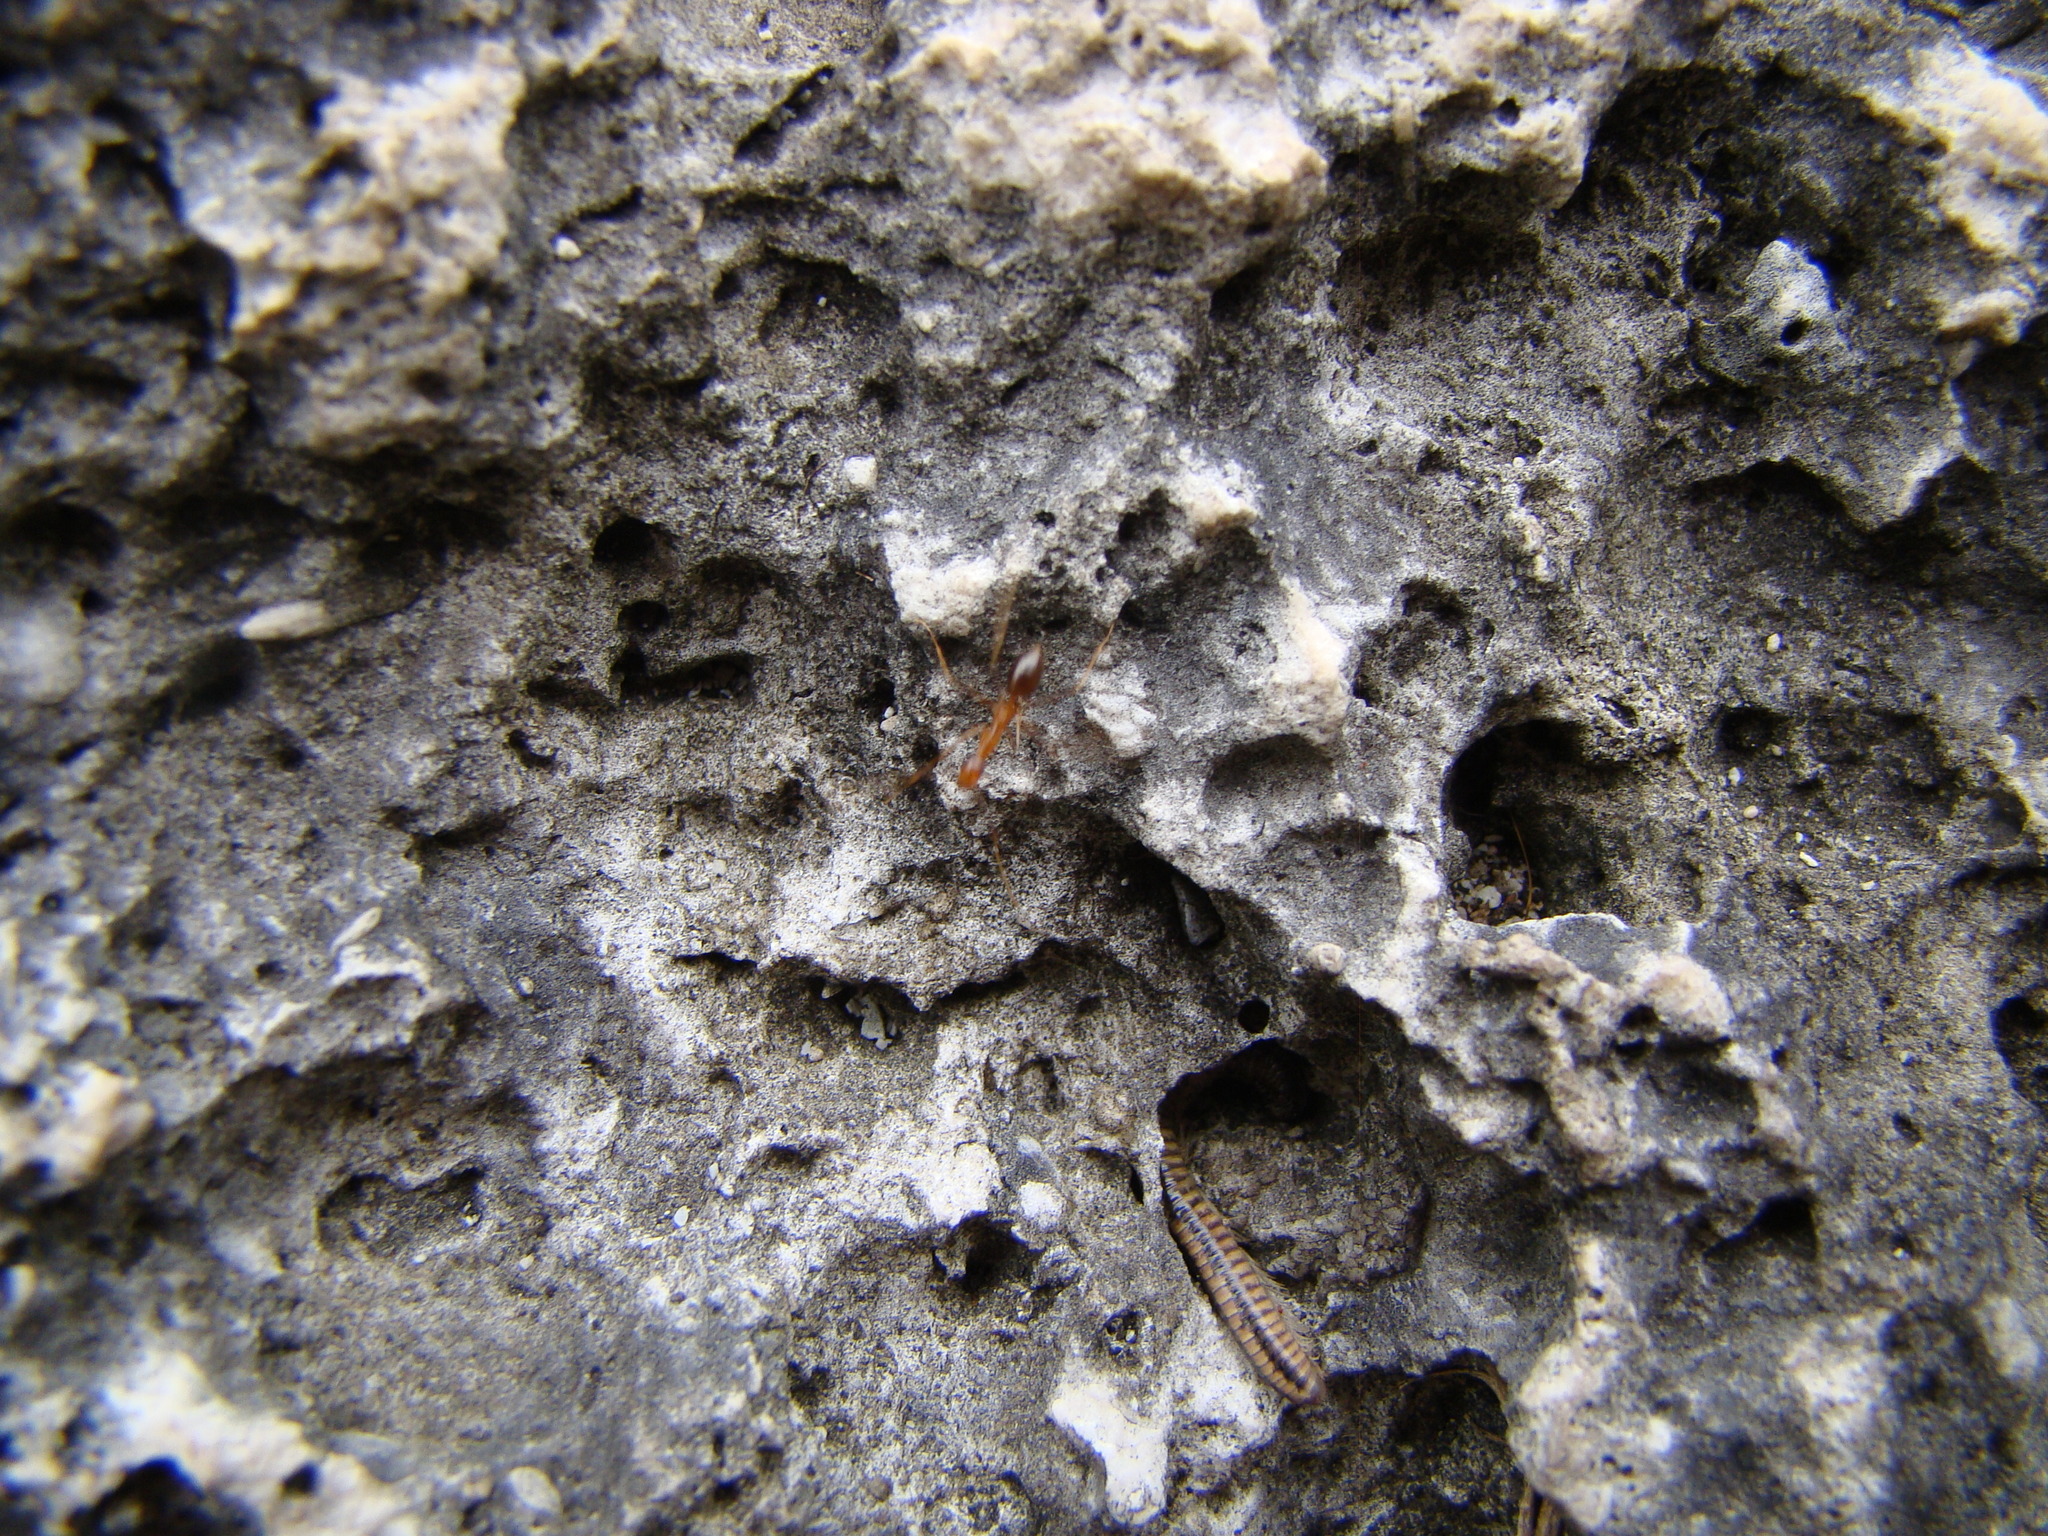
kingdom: Animalia
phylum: Arthropoda
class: Insecta
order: Hymenoptera
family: Formicidae
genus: Anoplolepis
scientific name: Anoplolepis gracilipes
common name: Ant
